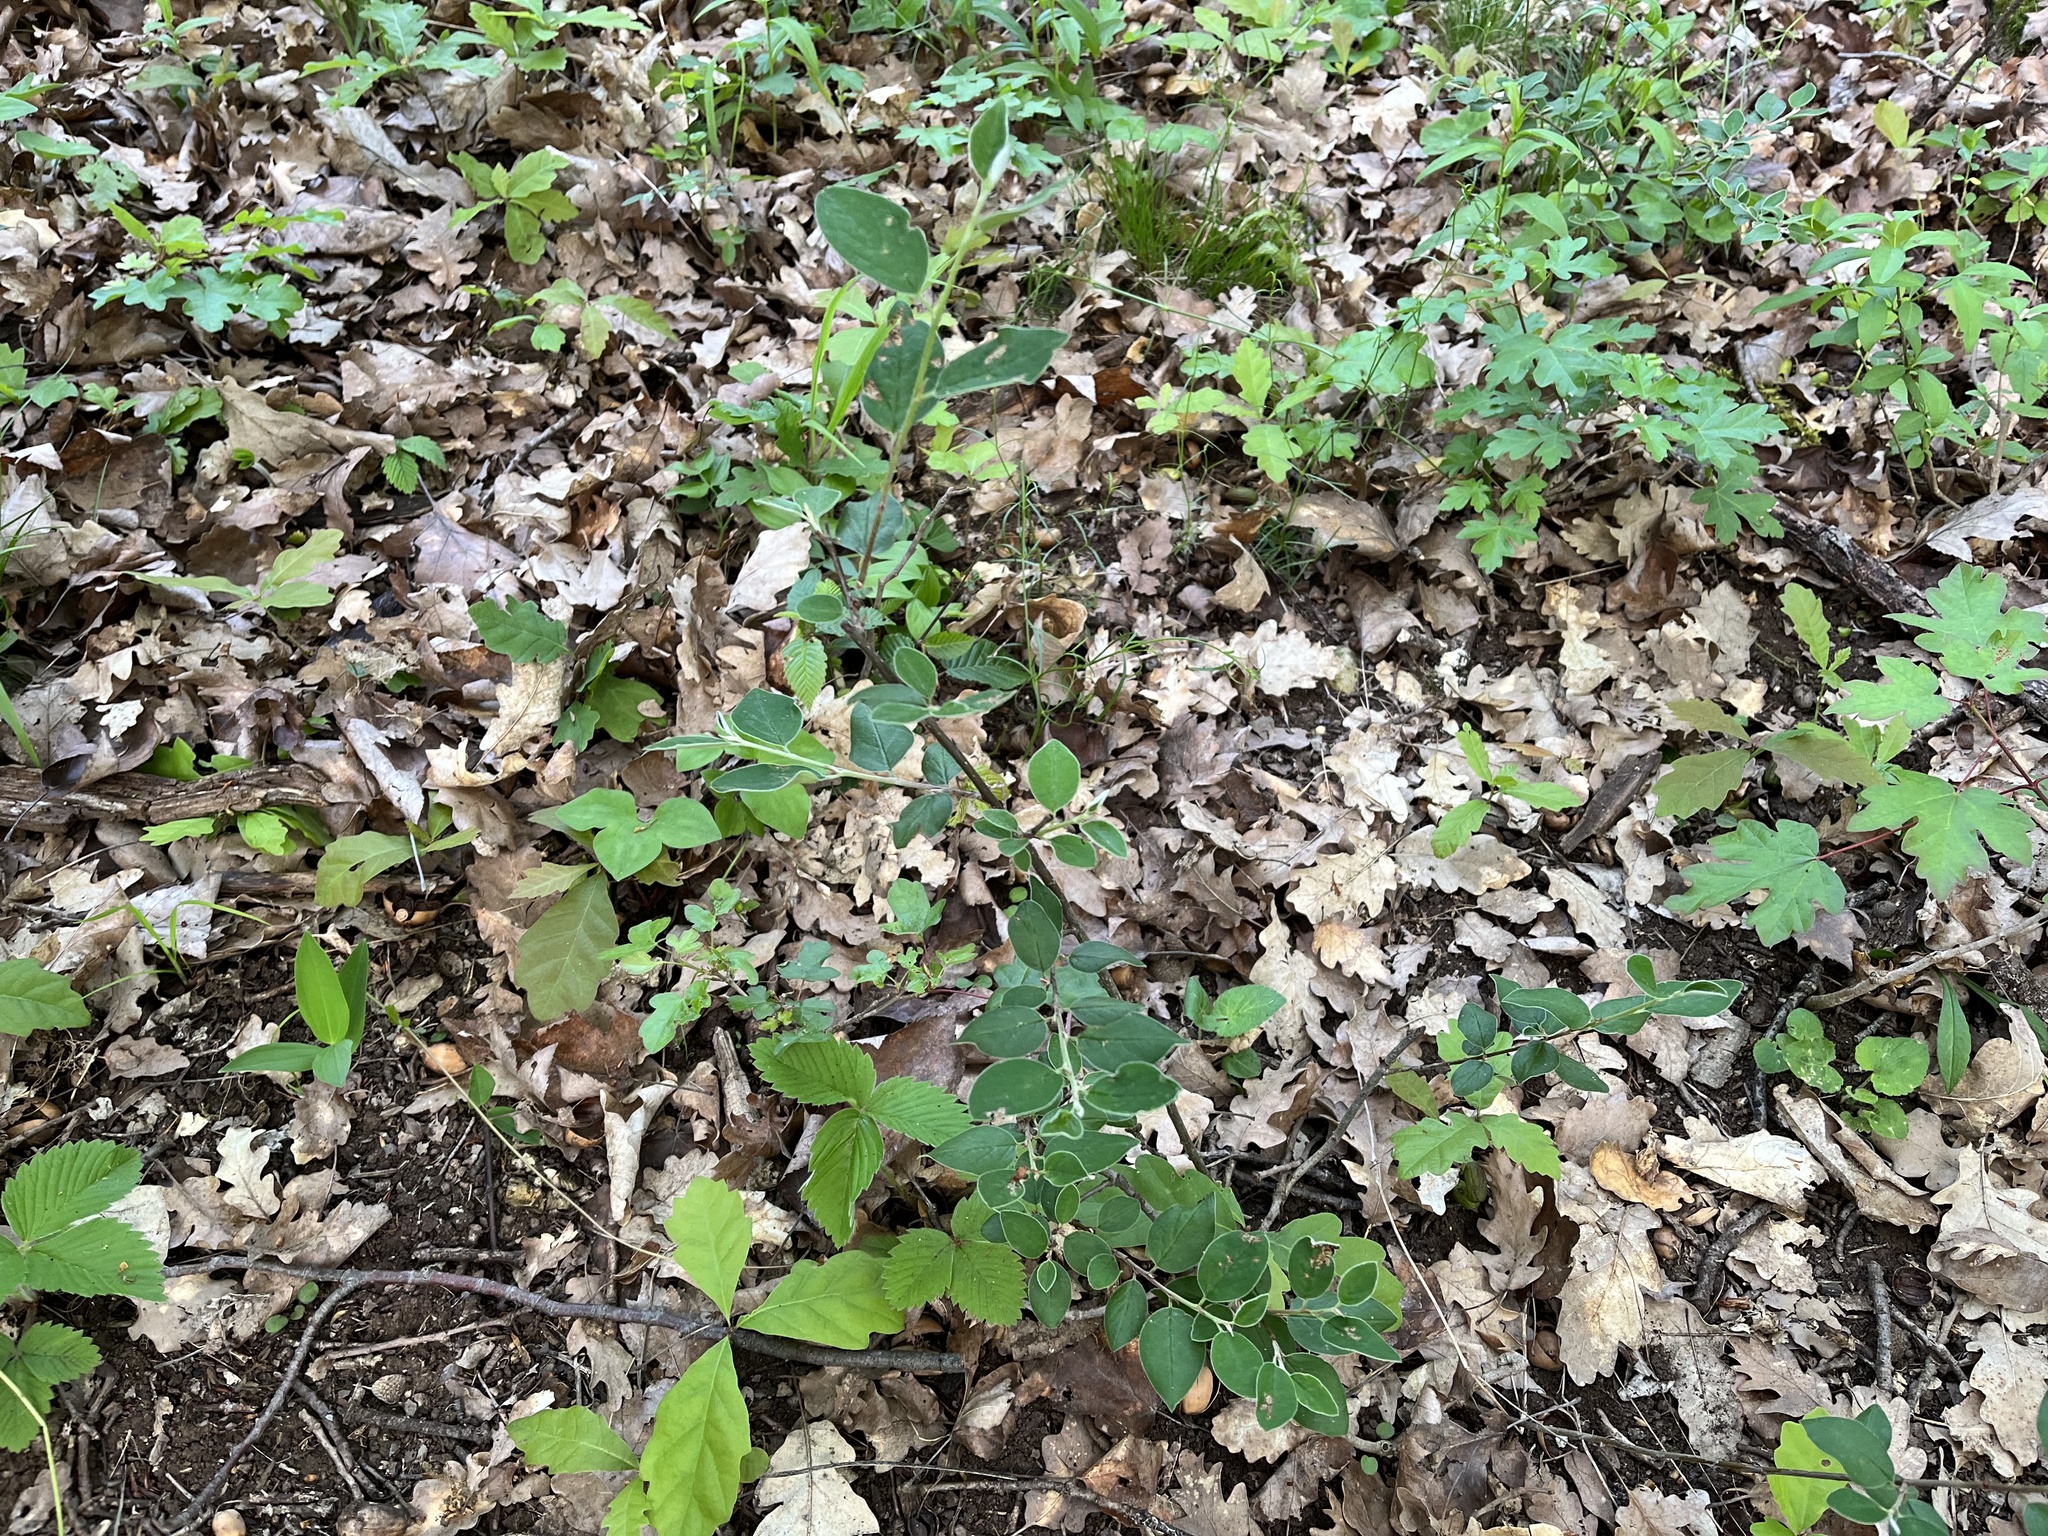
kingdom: Plantae
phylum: Tracheophyta
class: Magnoliopsida
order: Rosales
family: Rosaceae
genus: Cotoneaster
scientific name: Cotoneaster integerrimus
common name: Wild cotoneaster
